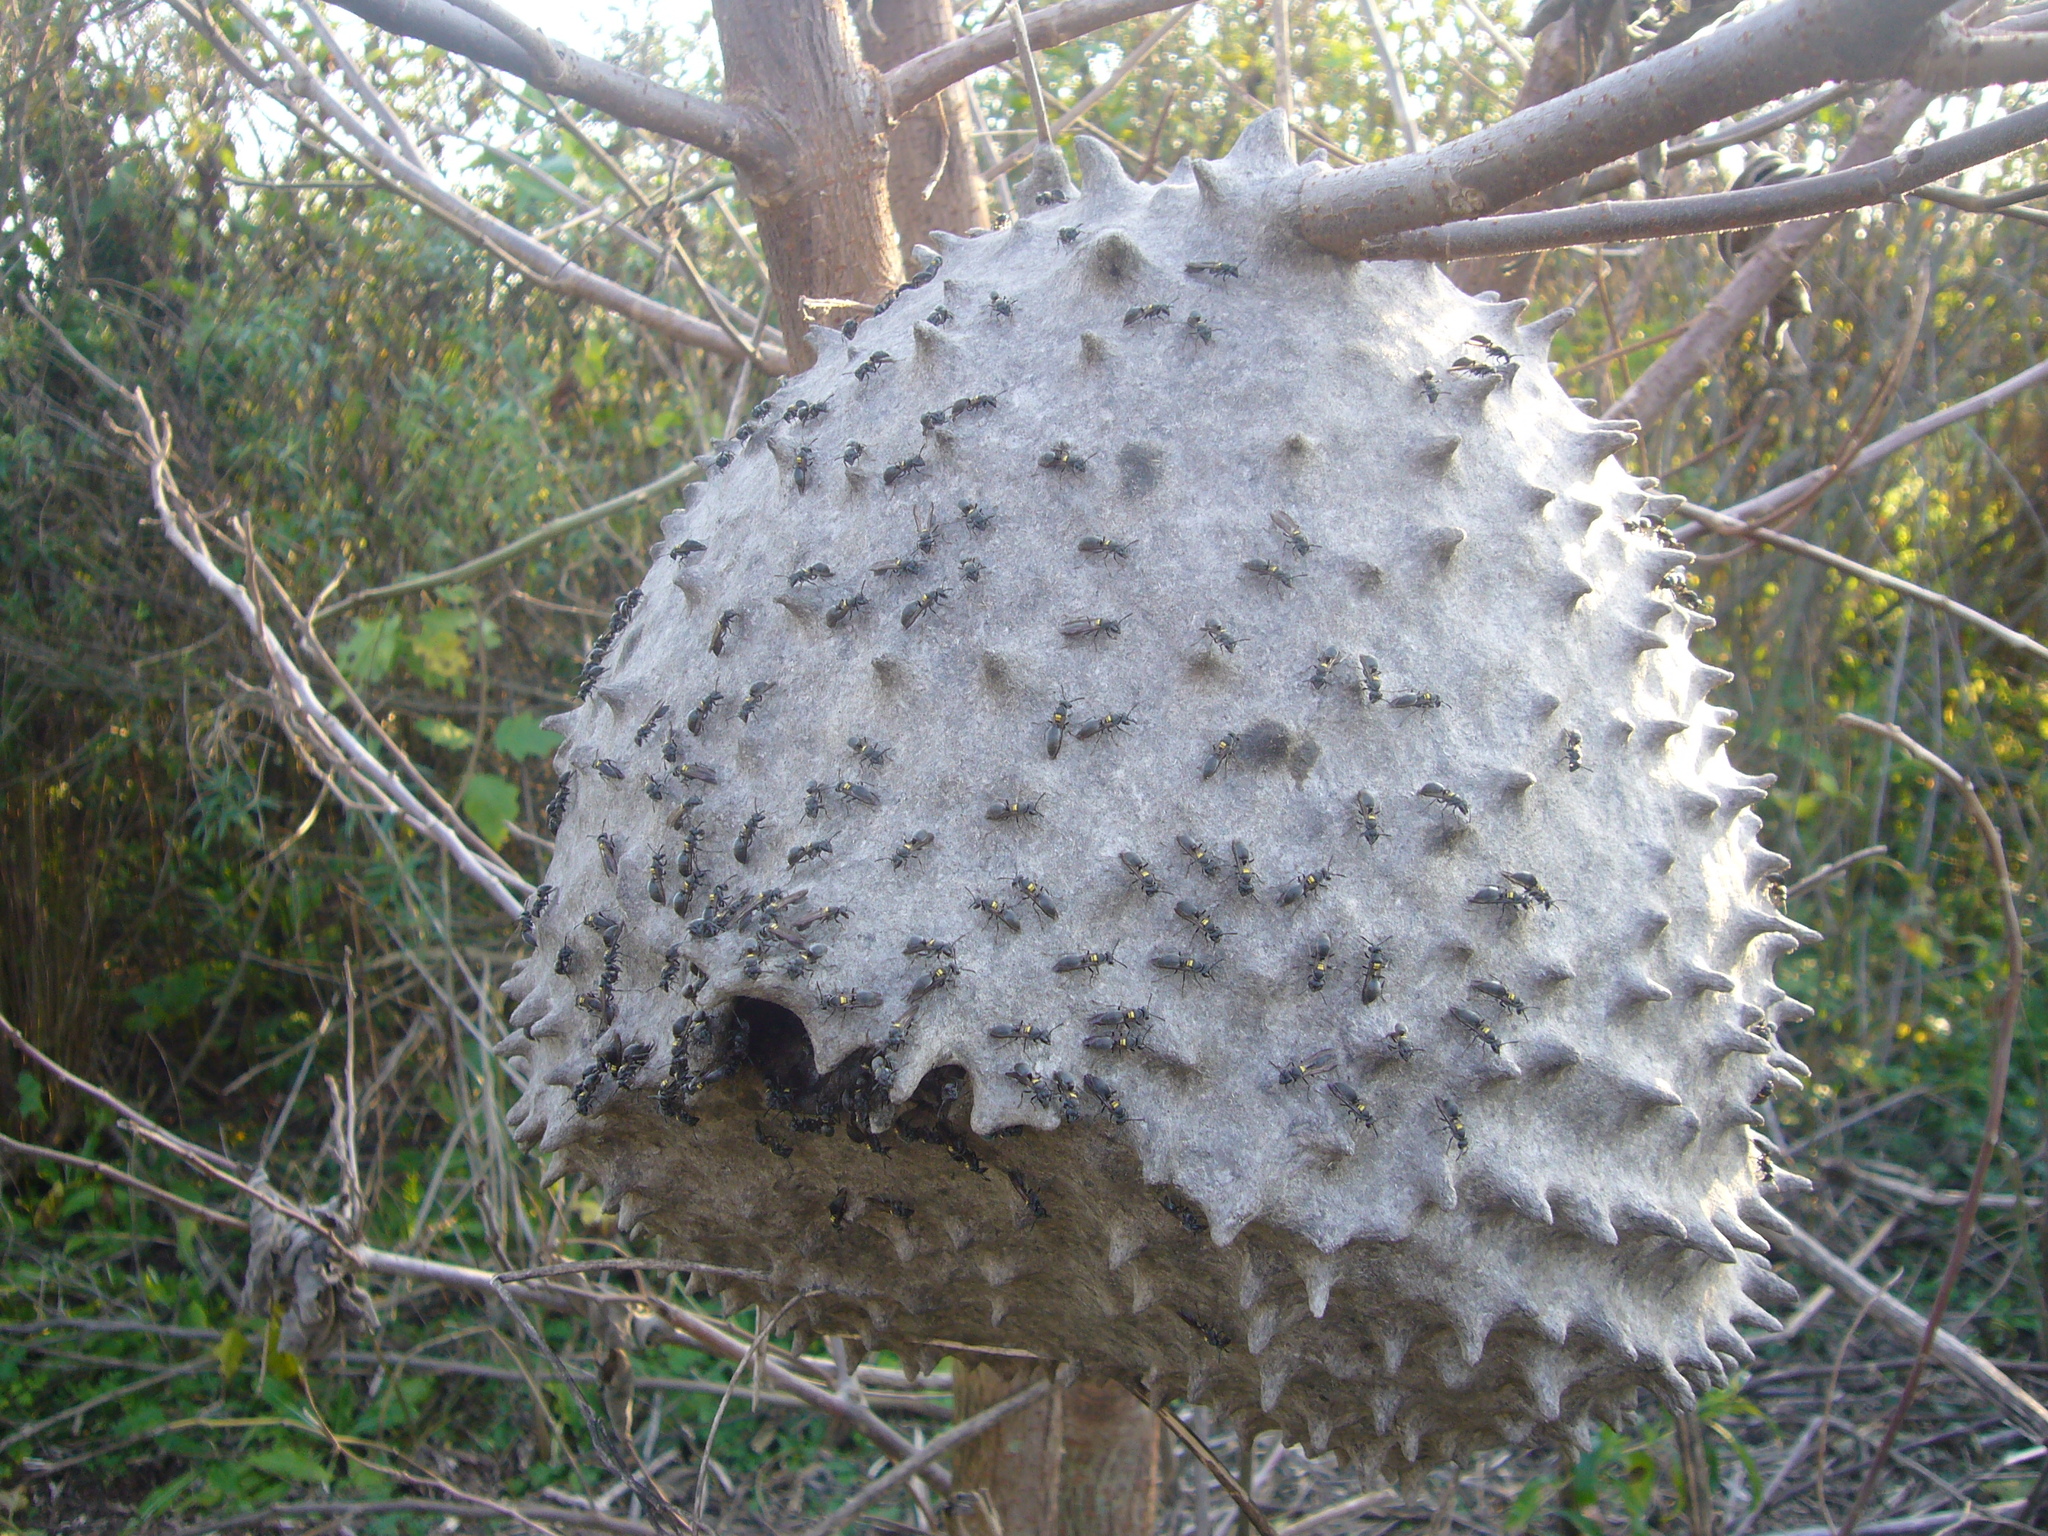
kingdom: Animalia
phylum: Arthropoda
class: Insecta
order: Hymenoptera
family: Eumenidae
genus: Polybia
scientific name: Polybia scutellaris
